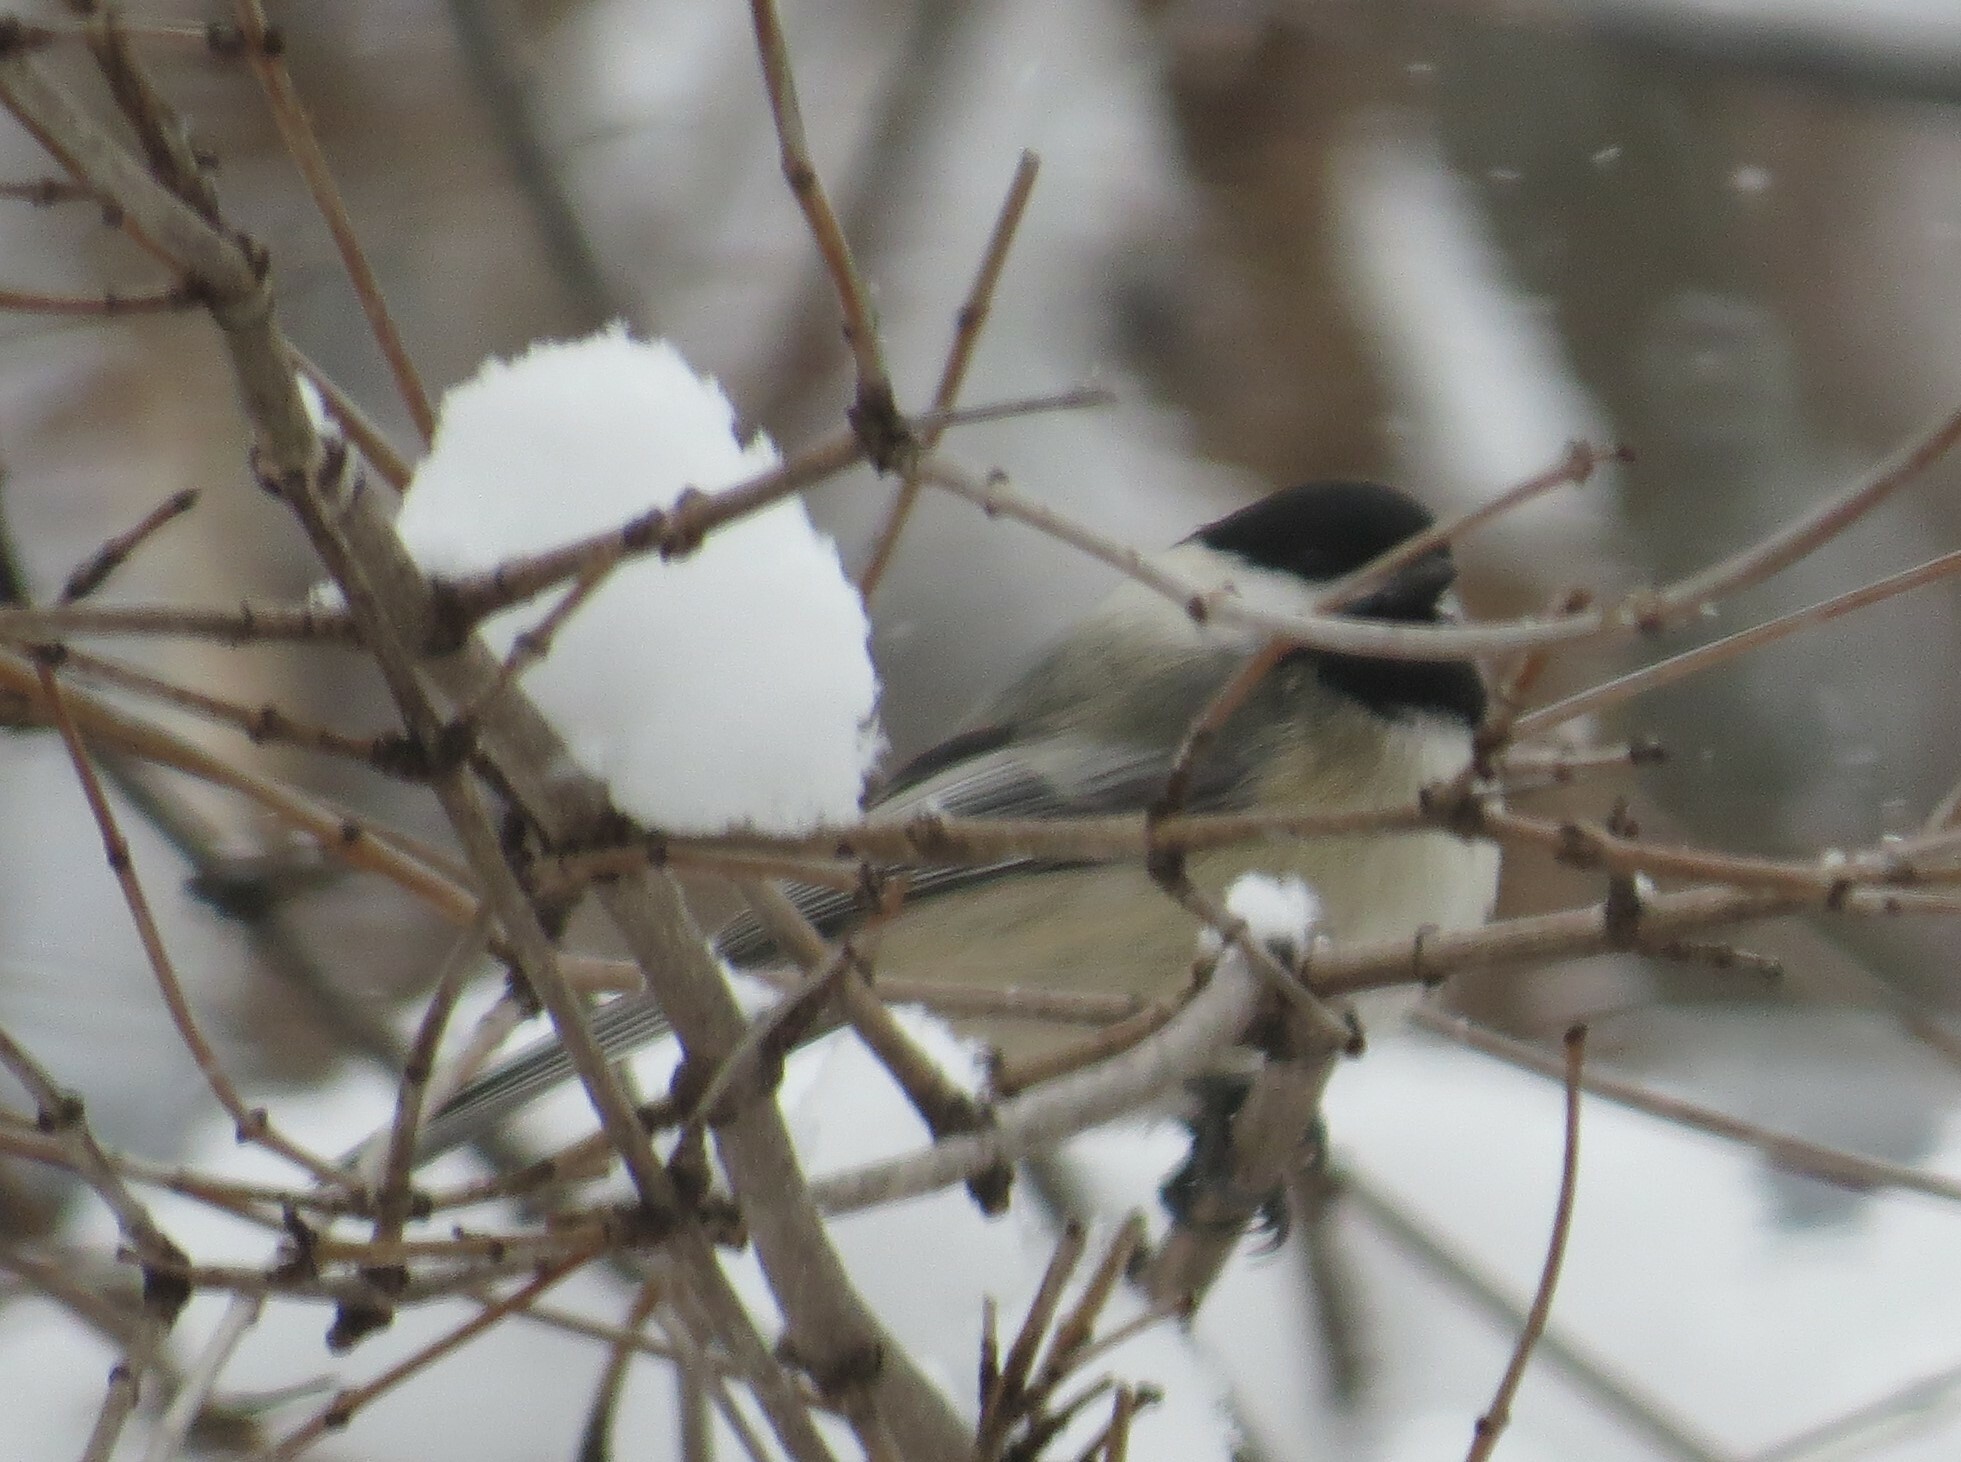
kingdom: Animalia
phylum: Chordata
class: Aves
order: Passeriformes
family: Paridae
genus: Poecile
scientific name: Poecile atricapillus
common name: Black-capped chickadee
